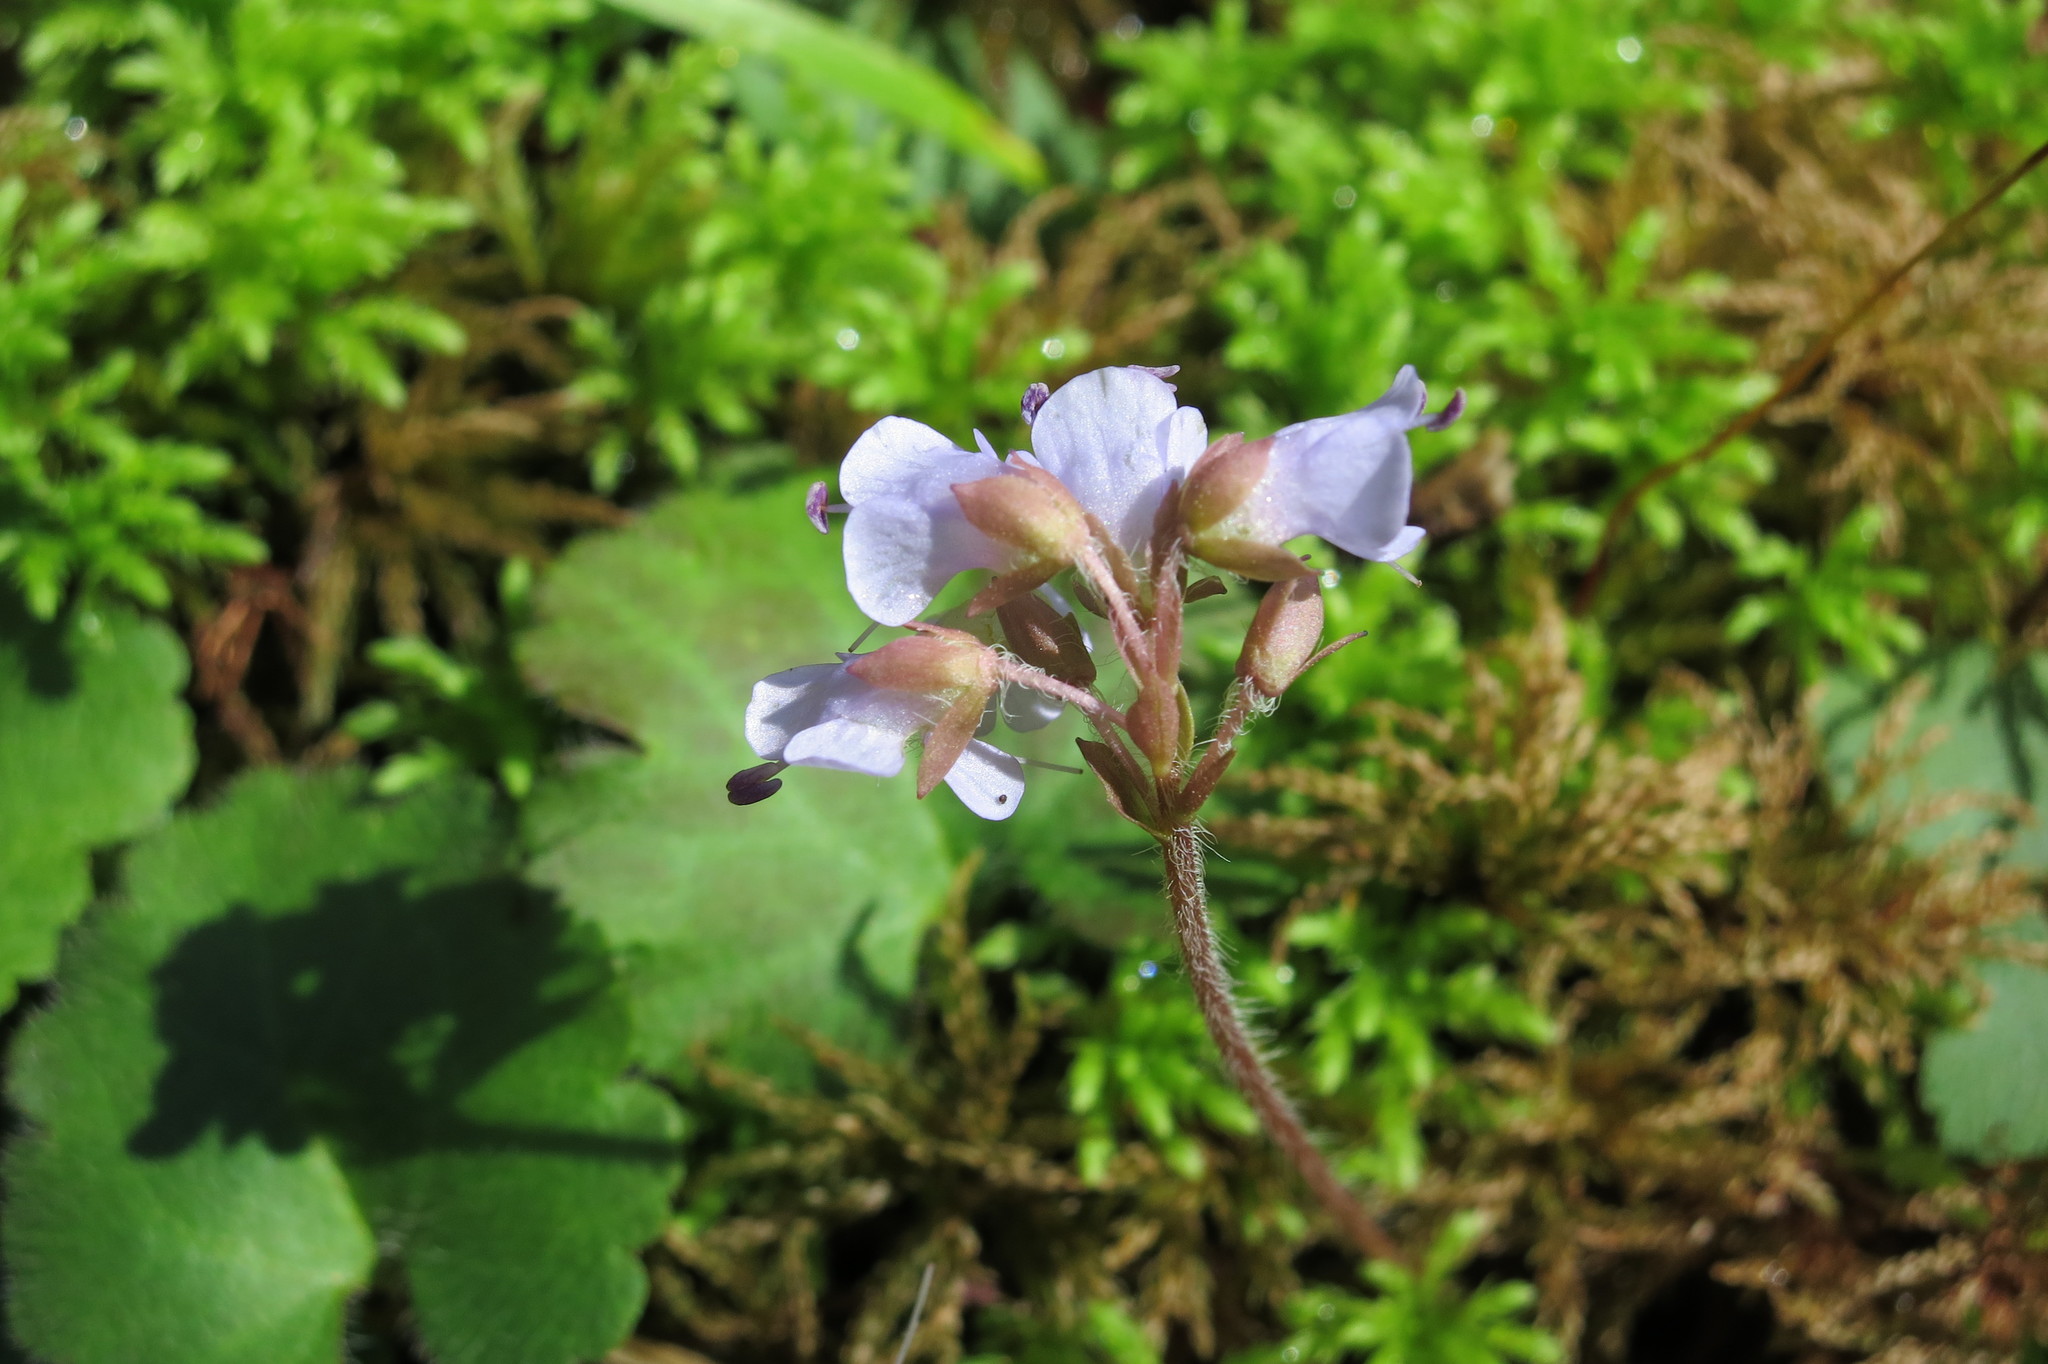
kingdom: Plantae
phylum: Tracheophyta
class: Magnoliopsida
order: Lamiales
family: Plantaginaceae
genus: Synthyris
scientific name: Synthyris reniformis
